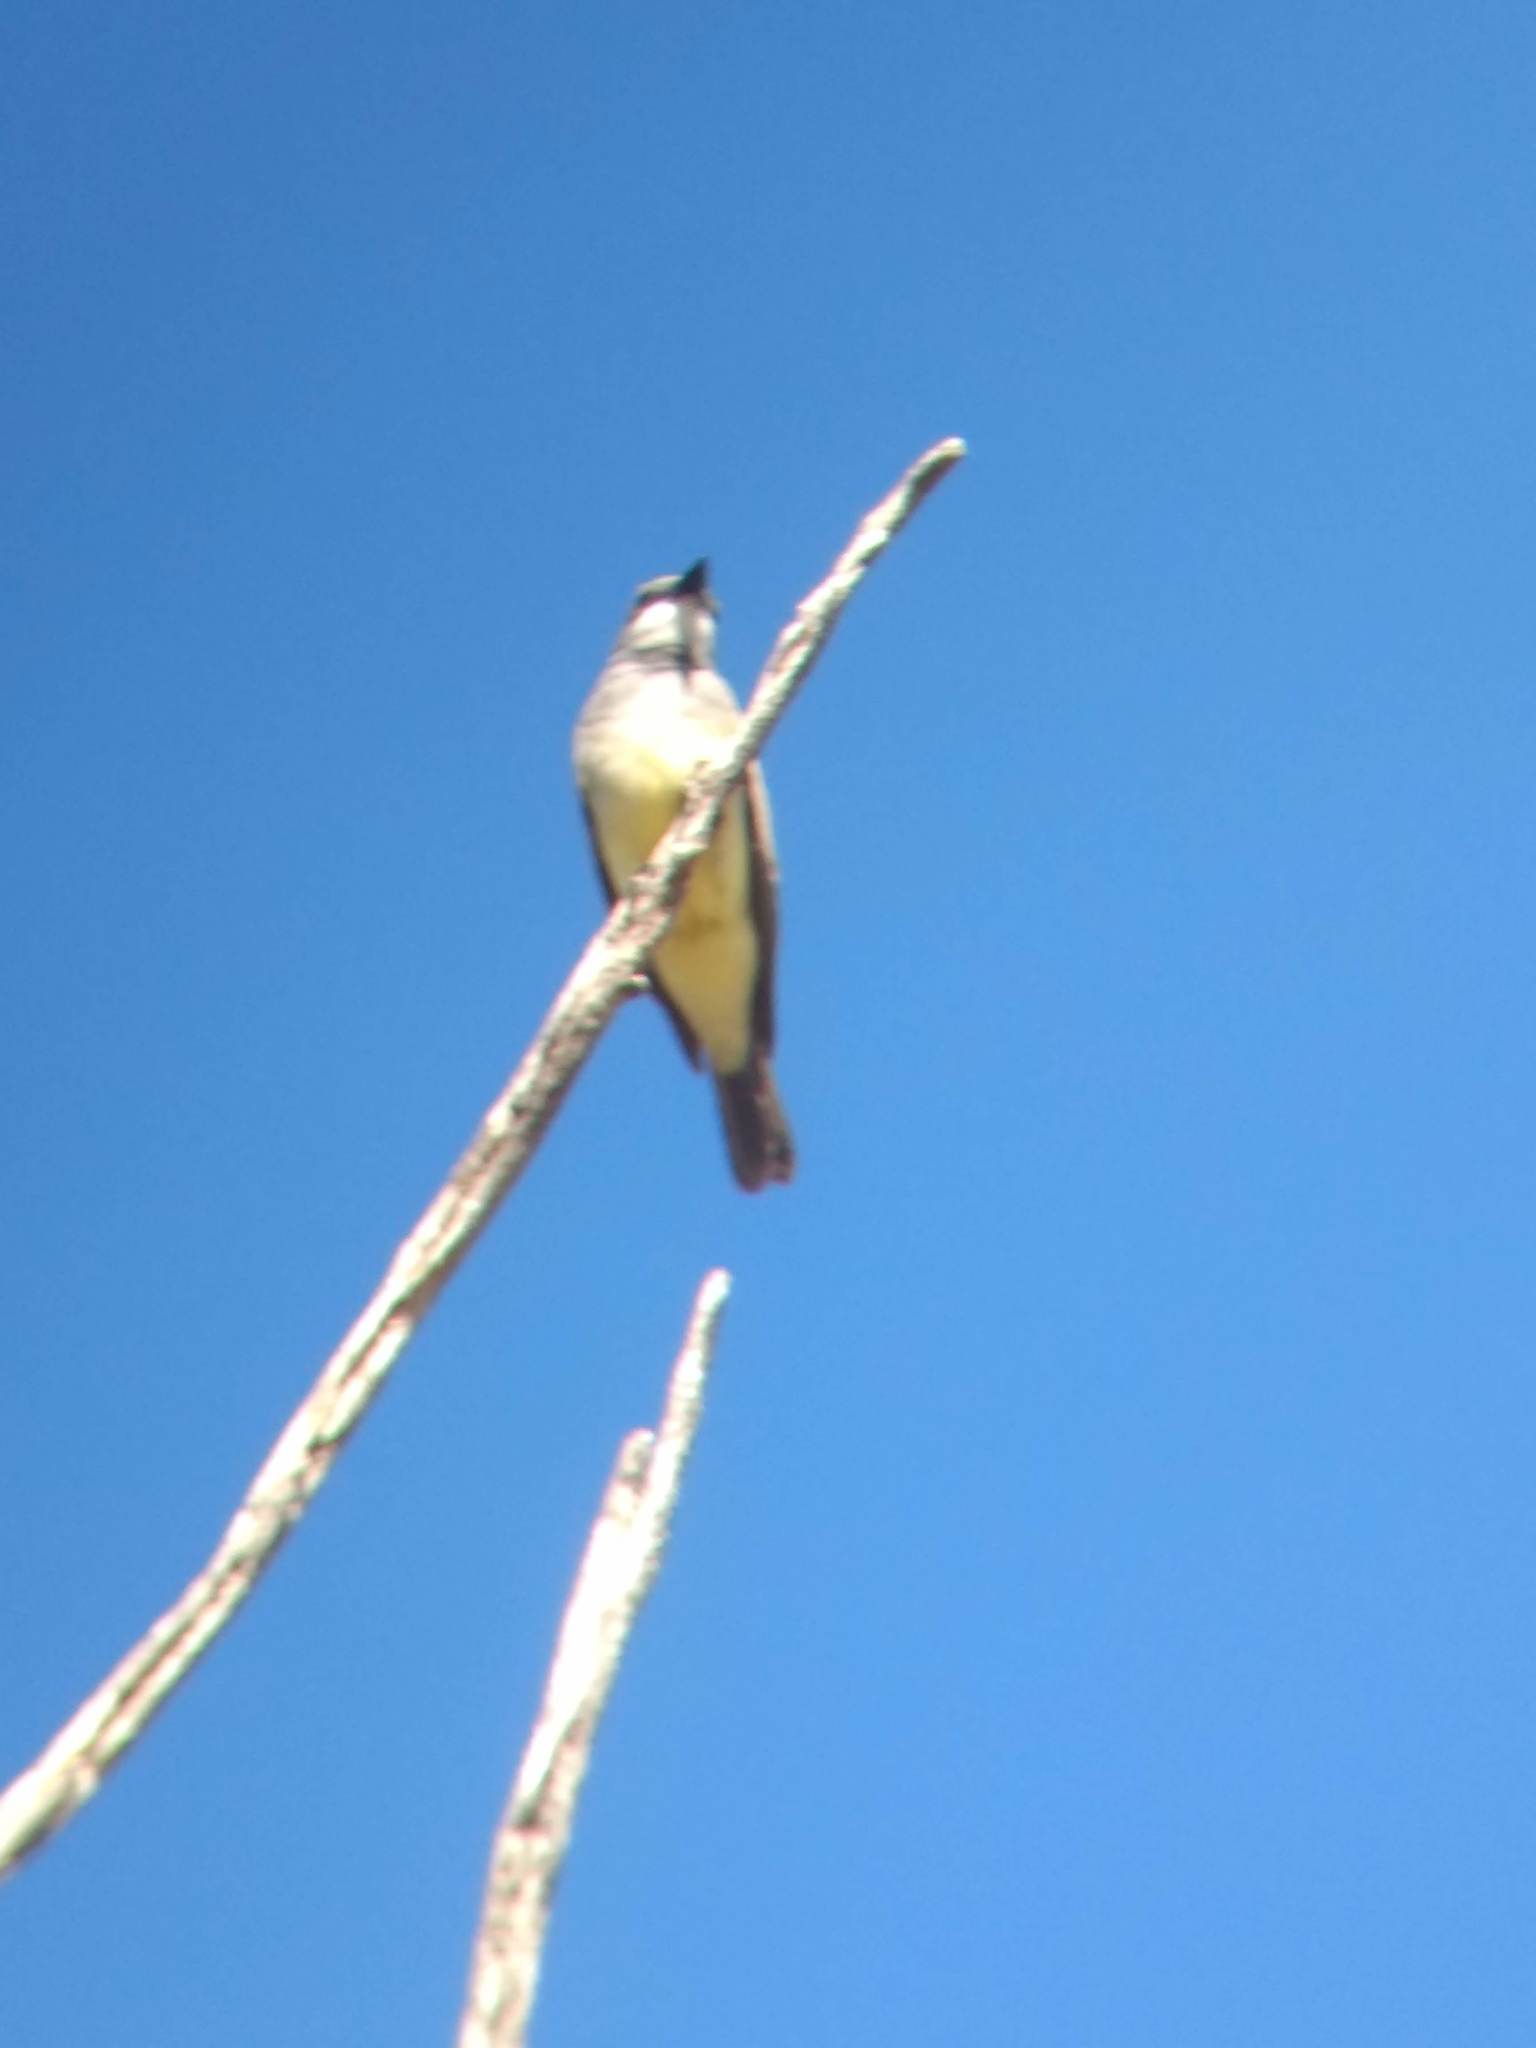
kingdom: Animalia
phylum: Chordata
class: Aves
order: Passeriformes
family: Tyrannidae
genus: Tyrannus
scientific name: Tyrannus vociferans
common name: Cassin's kingbird
